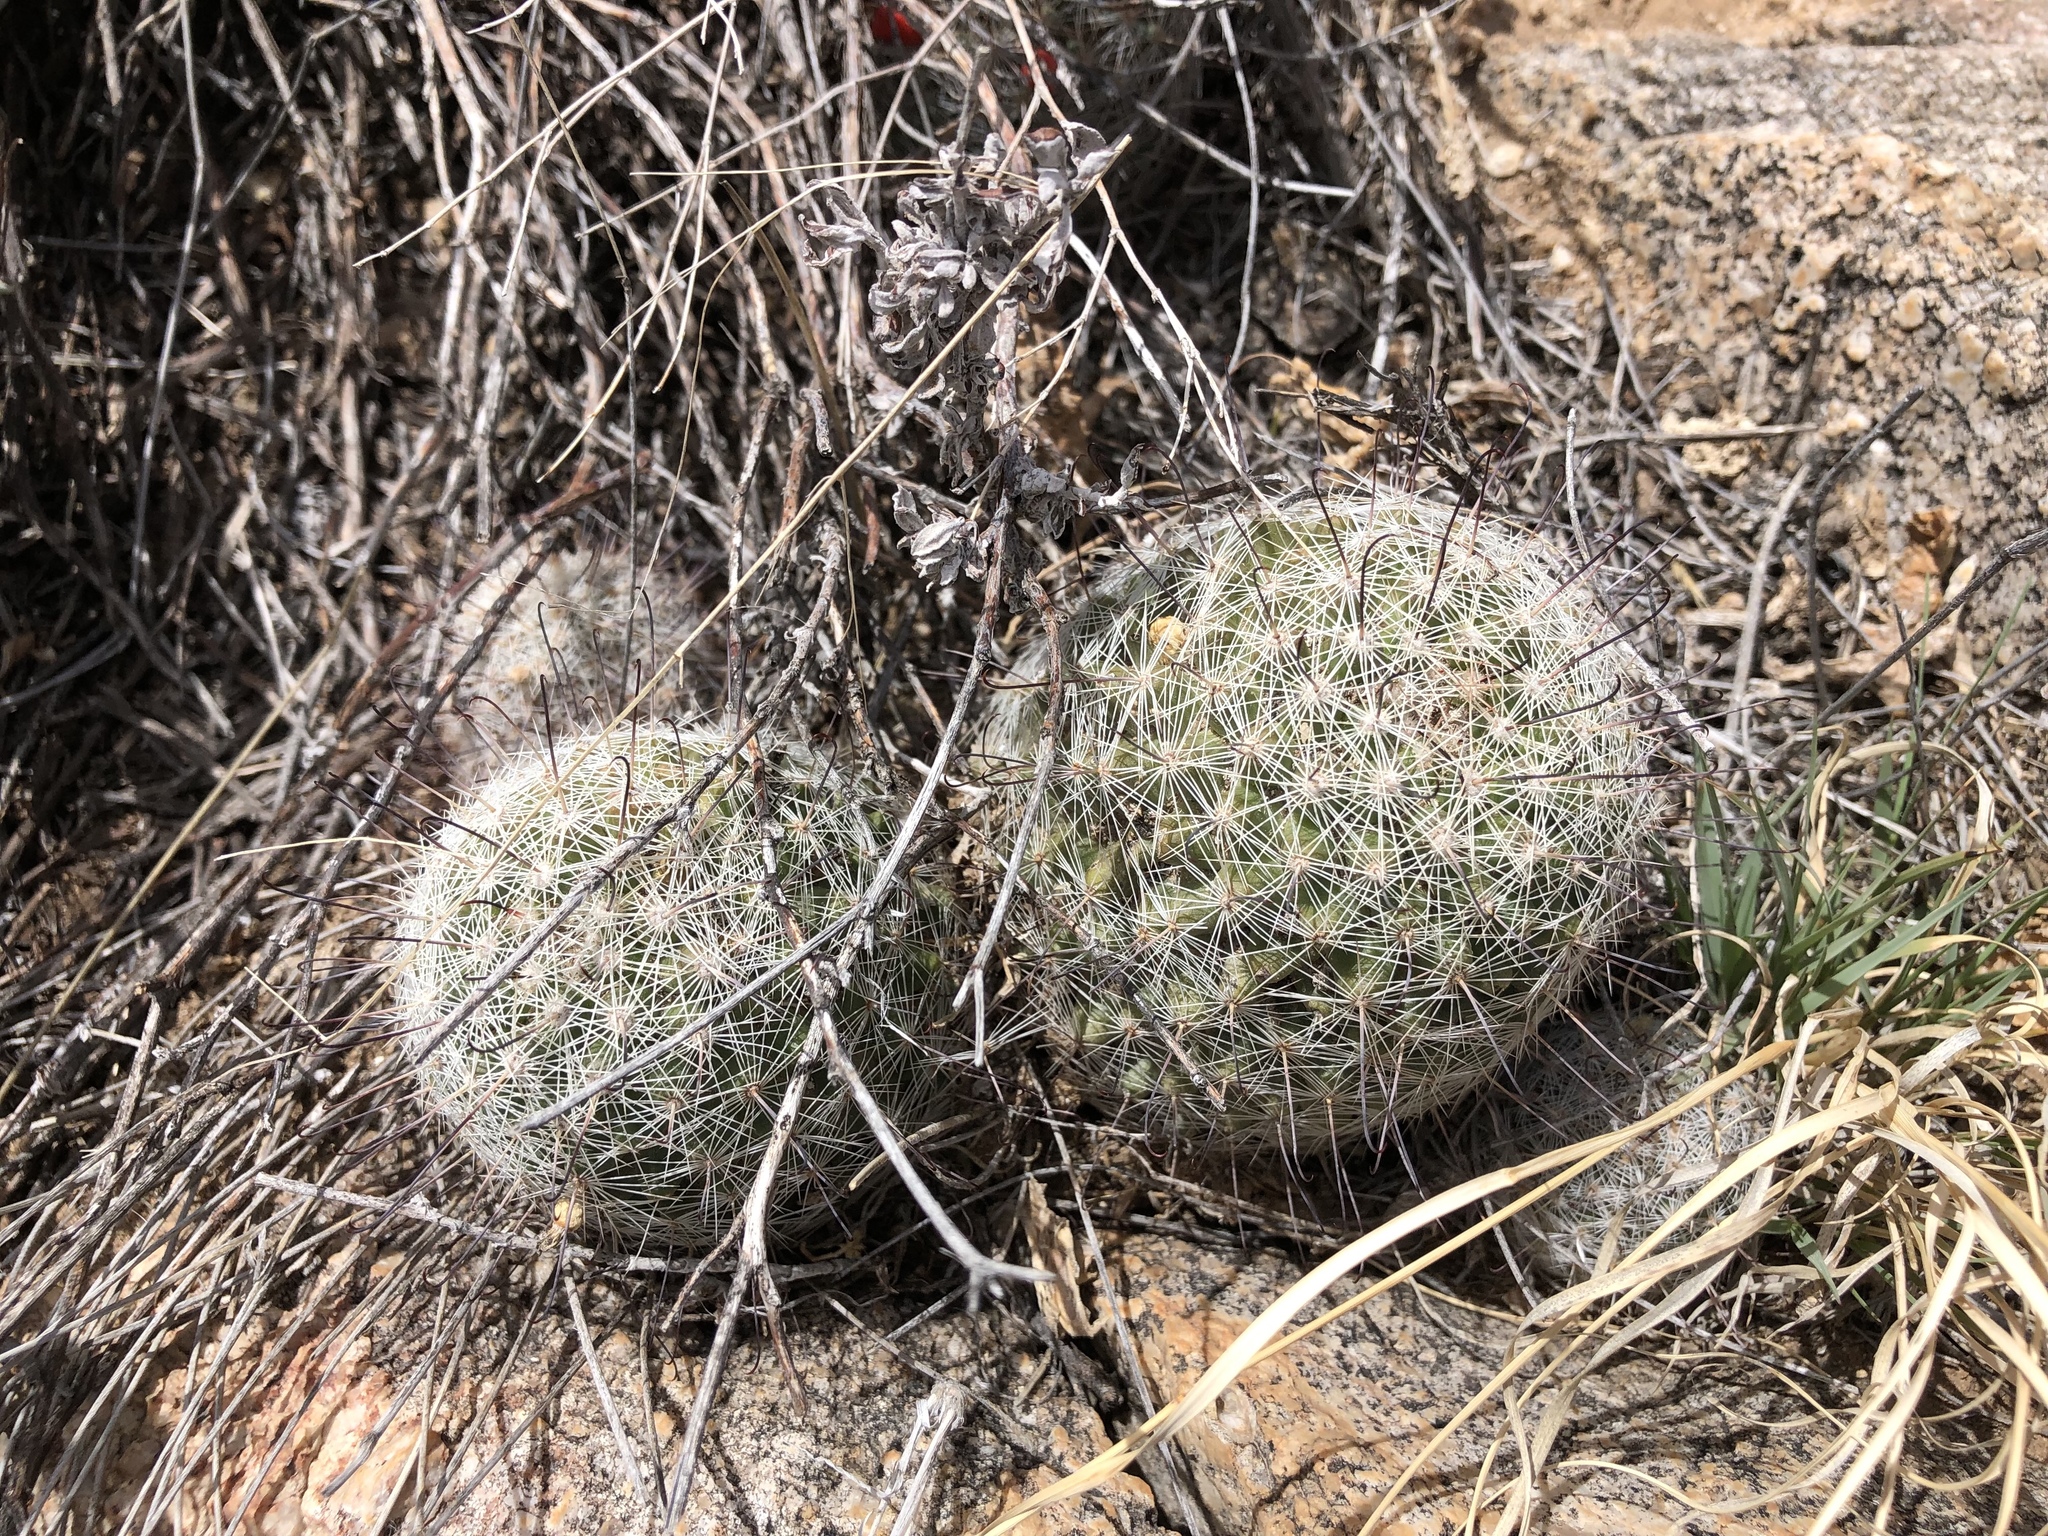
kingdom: Plantae
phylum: Tracheophyta
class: Magnoliopsida
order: Caryophyllales
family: Cactaceae
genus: Cochemiea
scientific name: Cochemiea grahamii
